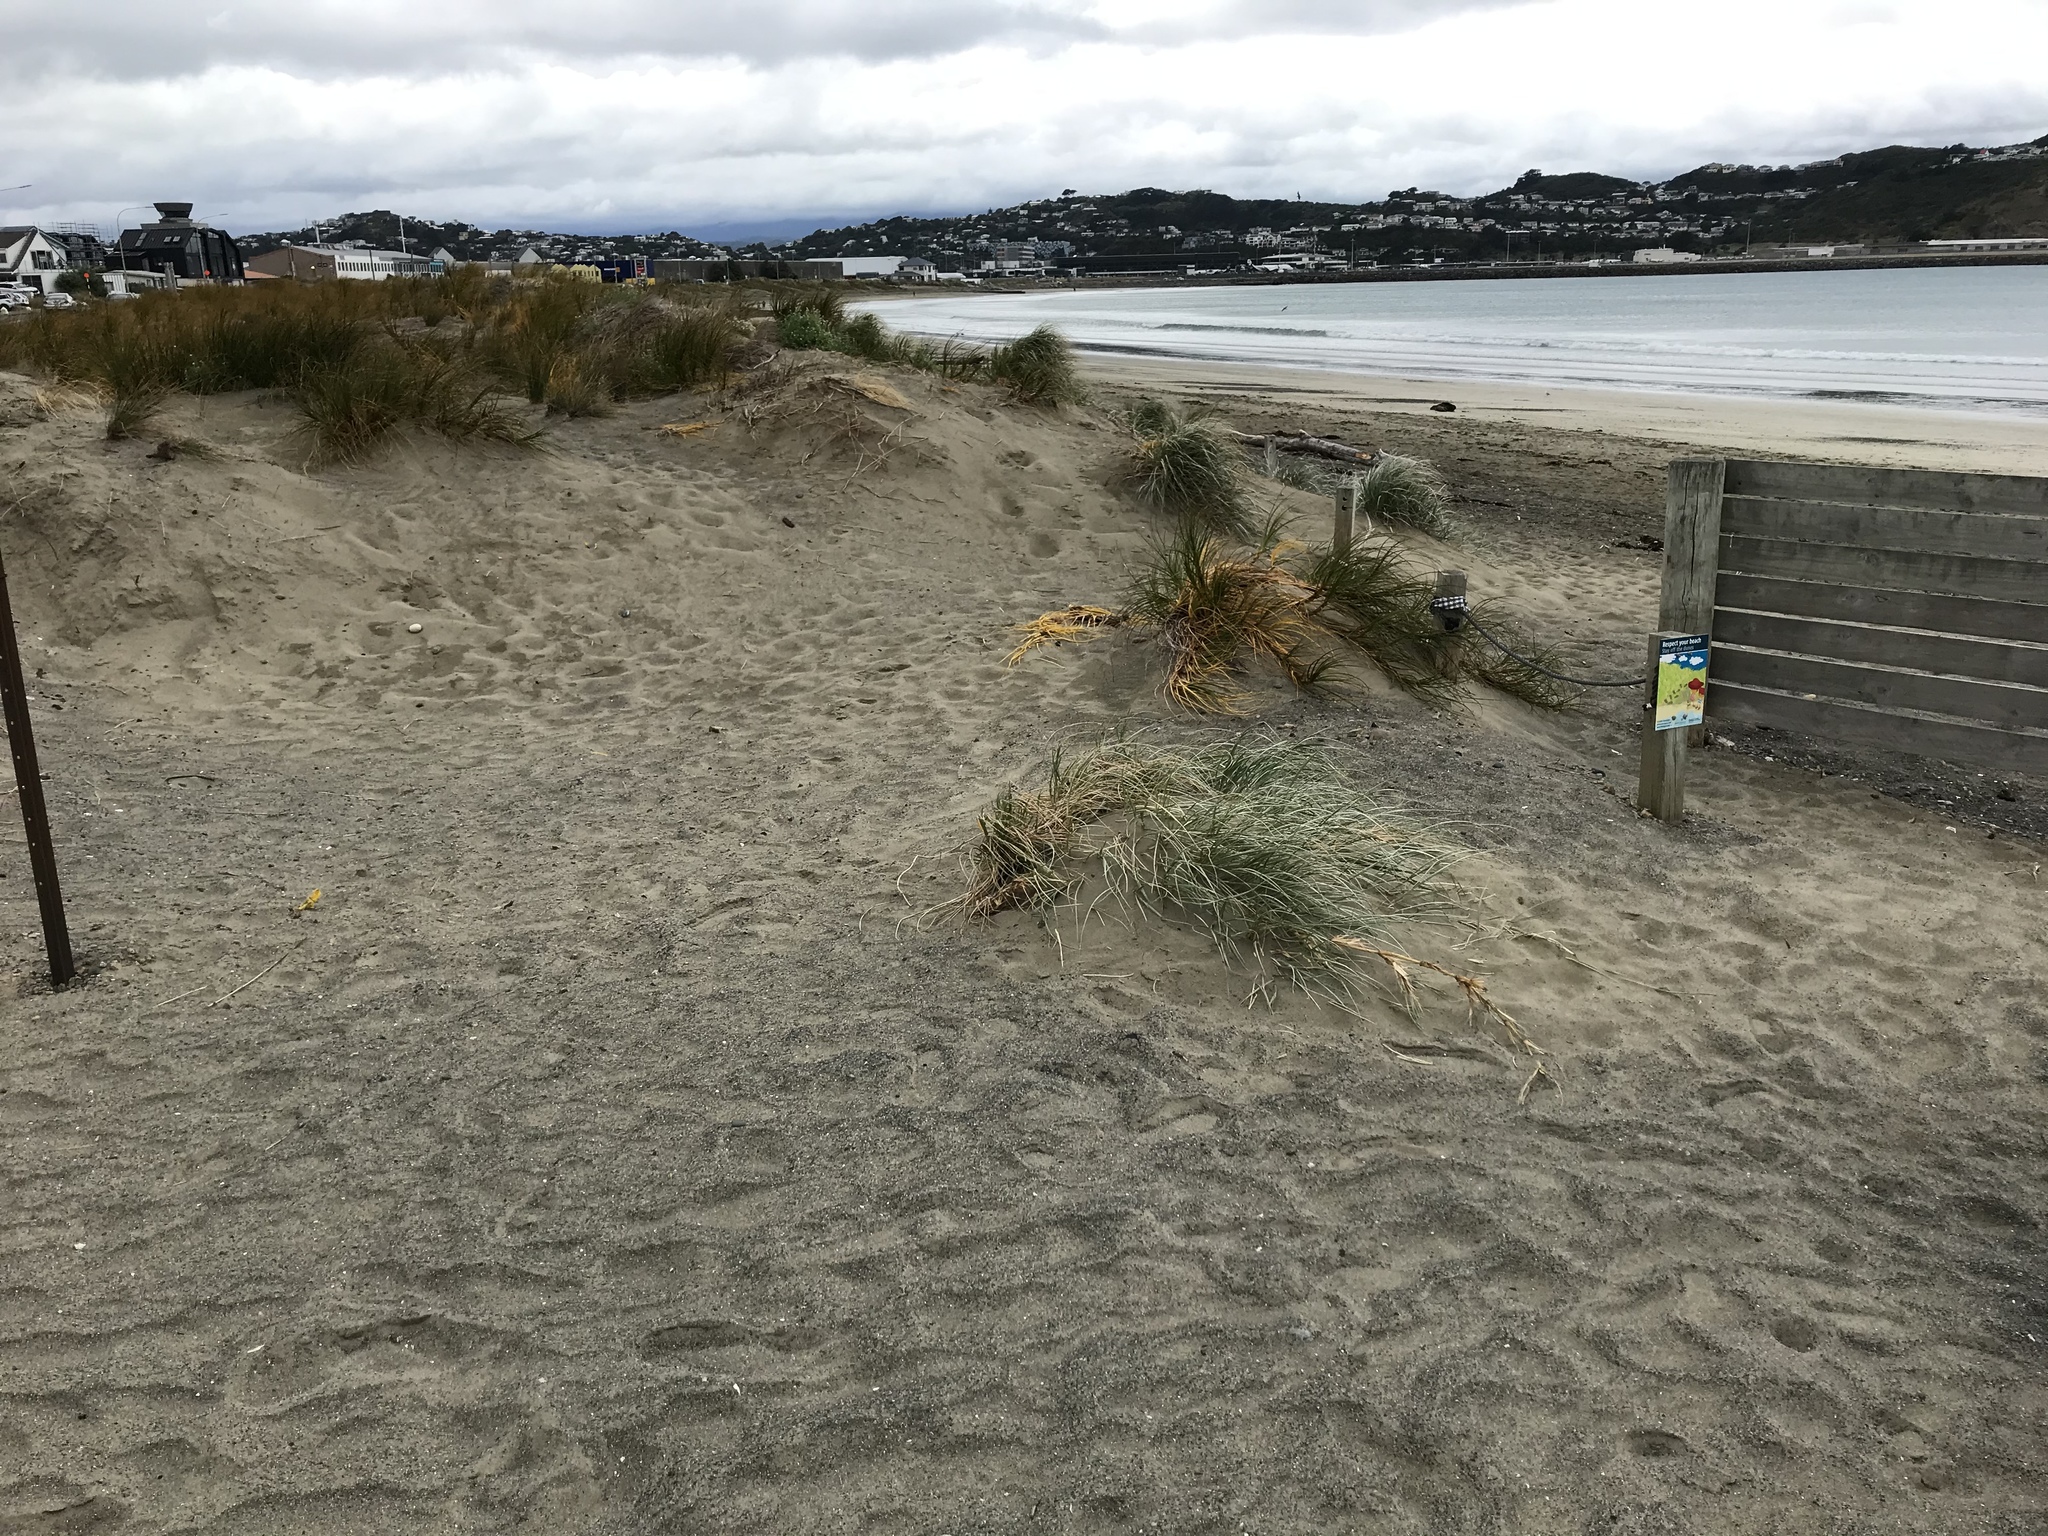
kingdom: Plantae
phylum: Tracheophyta
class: Liliopsida
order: Poales
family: Poaceae
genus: Spinifex
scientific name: Spinifex sericeus
